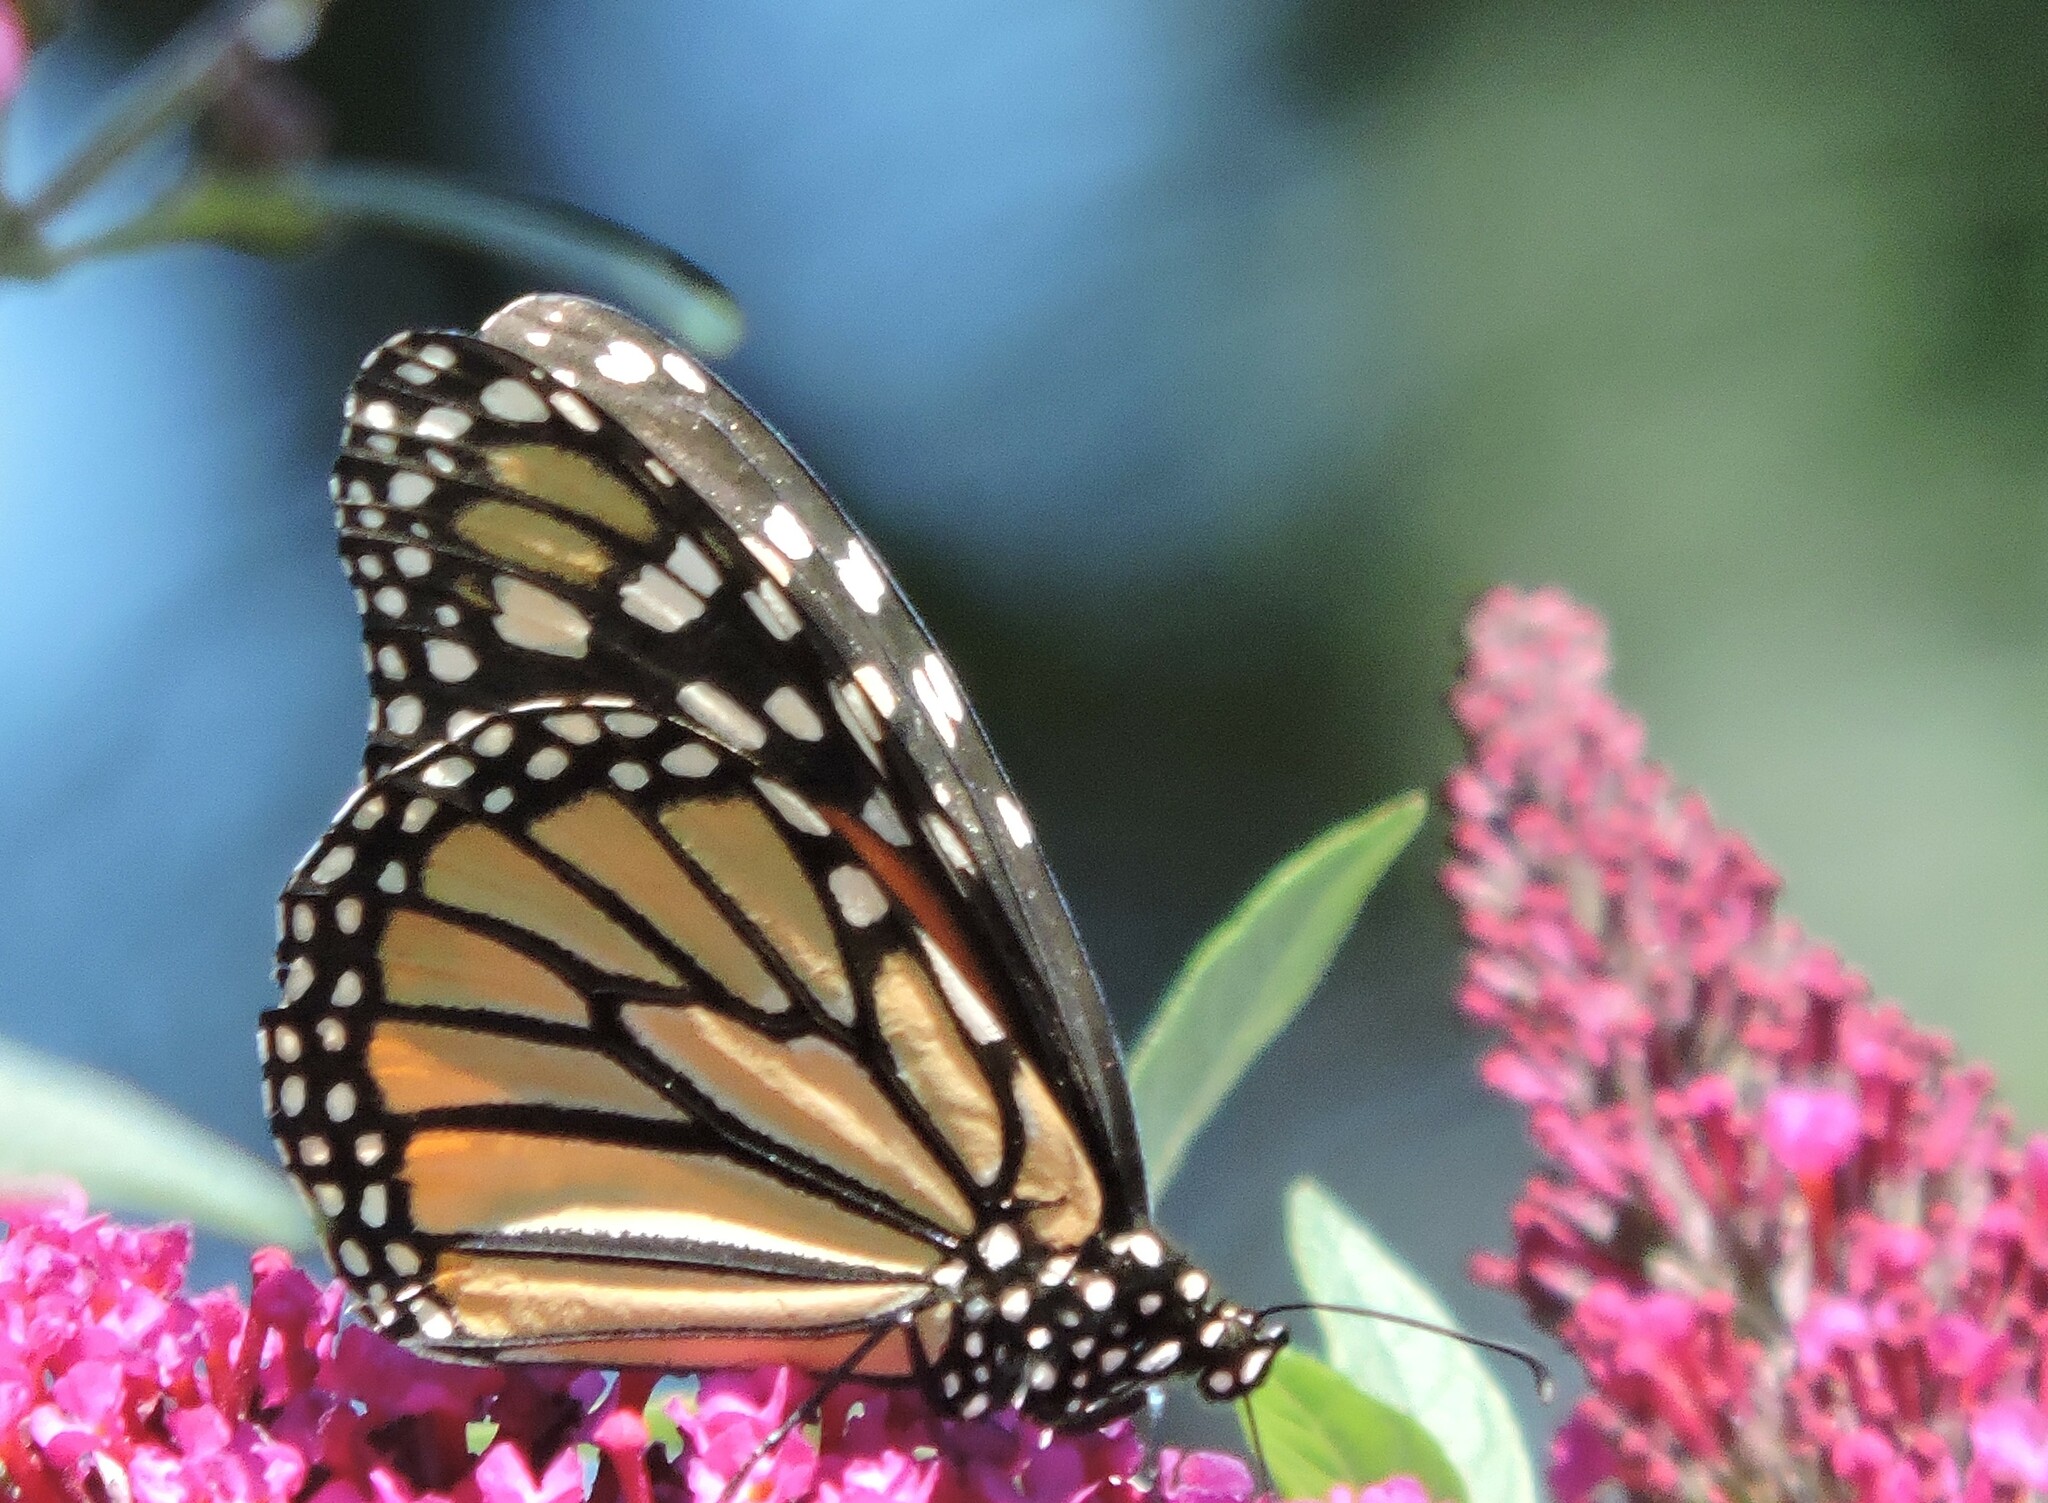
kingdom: Animalia
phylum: Arthropoda
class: Insecta
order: Lepidoptera
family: Nymphalidae
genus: Danaus
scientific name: Danaus plexippus
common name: Monarch
